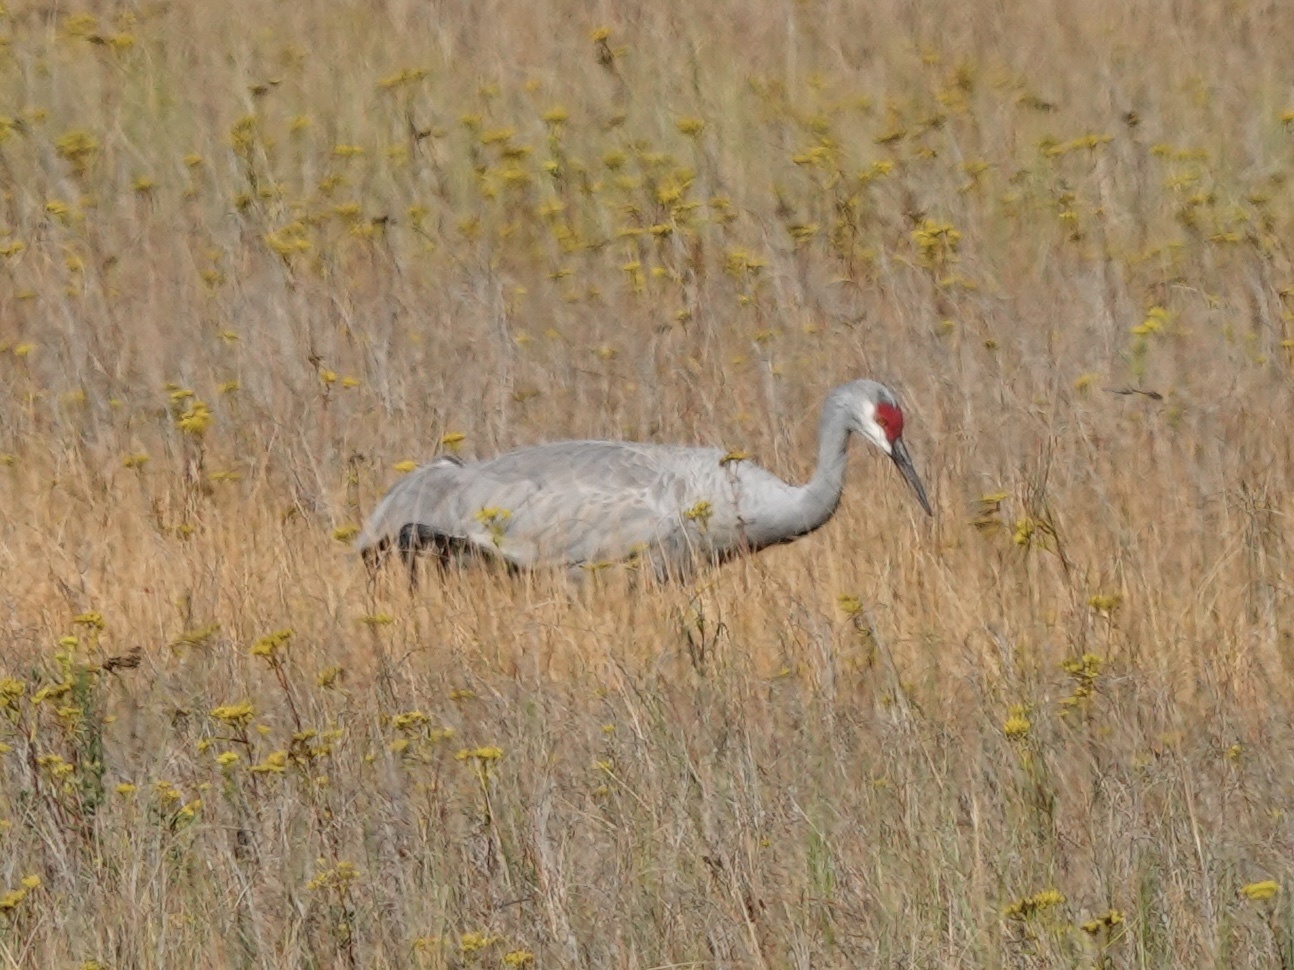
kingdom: Animalia
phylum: Chordata
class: Aves
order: Gruiformes
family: Gruidae
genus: Grus
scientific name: Grus canadensis
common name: Sandhill crane
